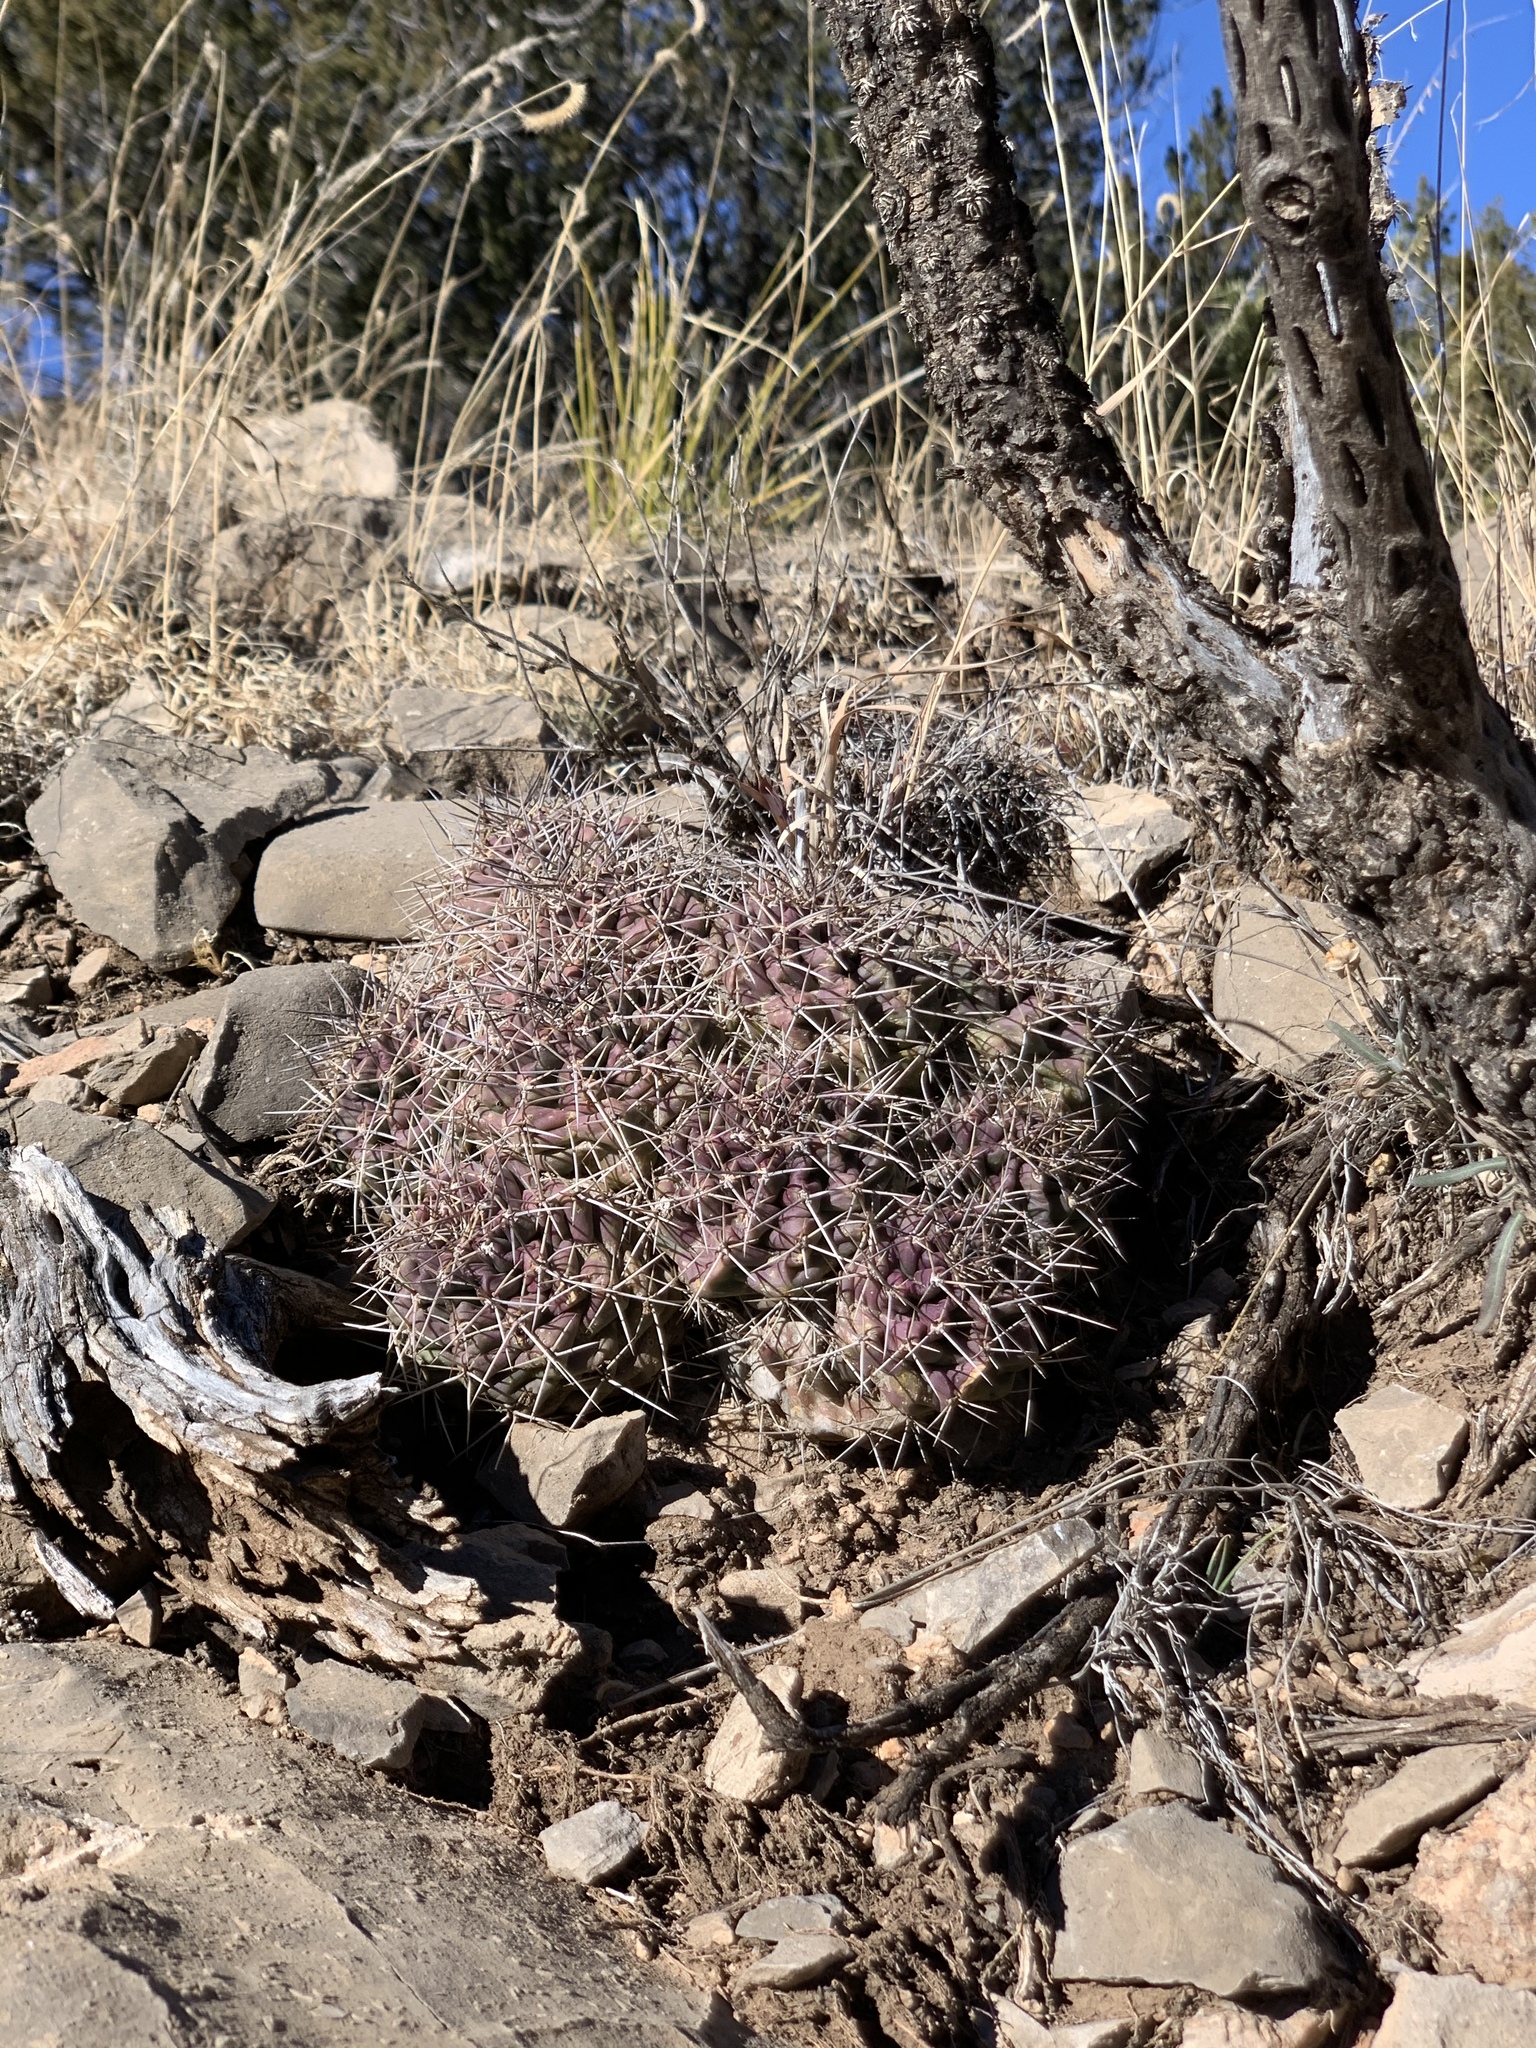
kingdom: Plantae
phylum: Tracheophyta
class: Magnoliopsida
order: Caryophyllales
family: Cactaceae
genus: Echinocereus
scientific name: Echinocereus coccineus
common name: Scarlet hedgehog cactus
